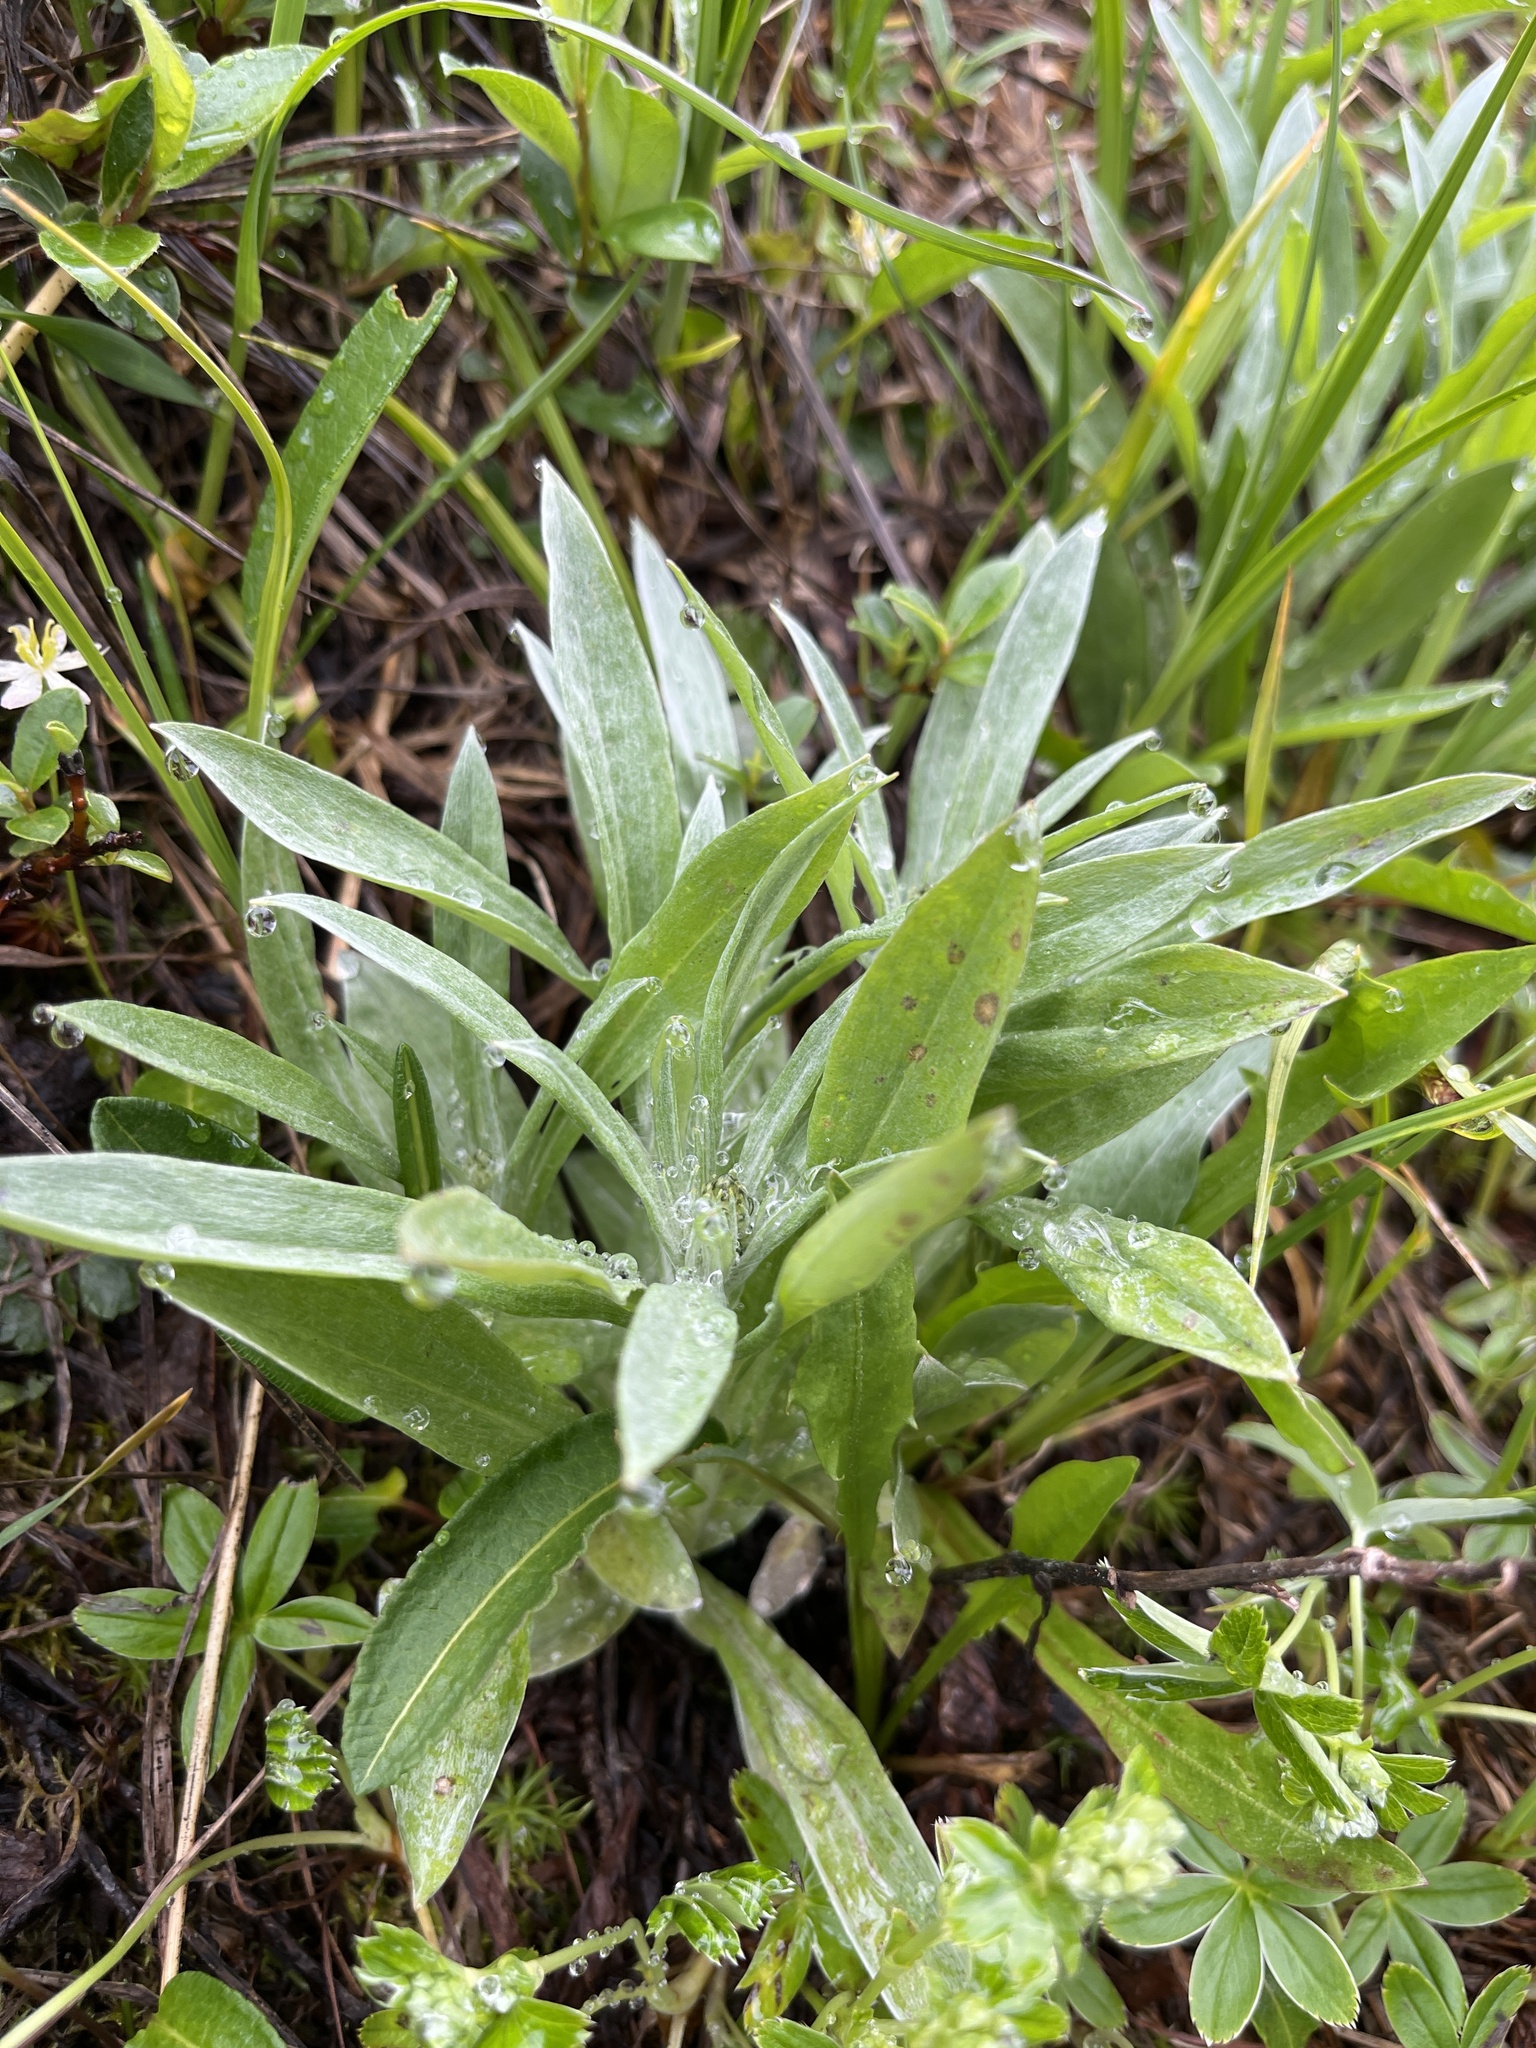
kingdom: Plantae
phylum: Tracheophyta
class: Magnoliopsida
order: Asterales
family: Asteraceae
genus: Omalotheca
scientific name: Omalotheca norvegica
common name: Norwegian arctic-cudweed
